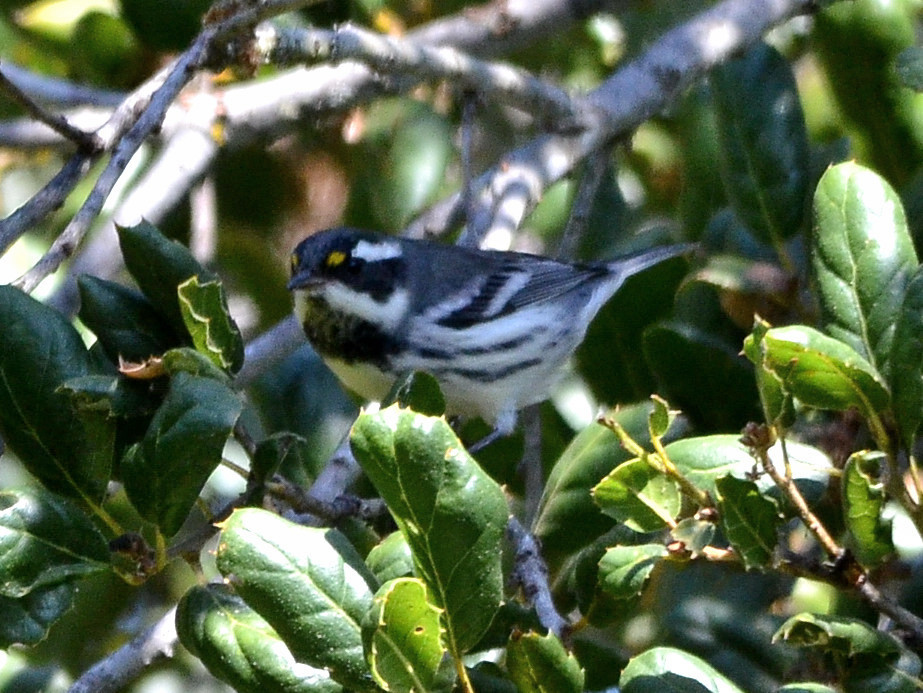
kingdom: Animalia
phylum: Chordata
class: Aves
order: Passeriformes
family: Parulidae
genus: Setophaga
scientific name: Setophaga nigrescens
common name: Black-throated gray warbler
